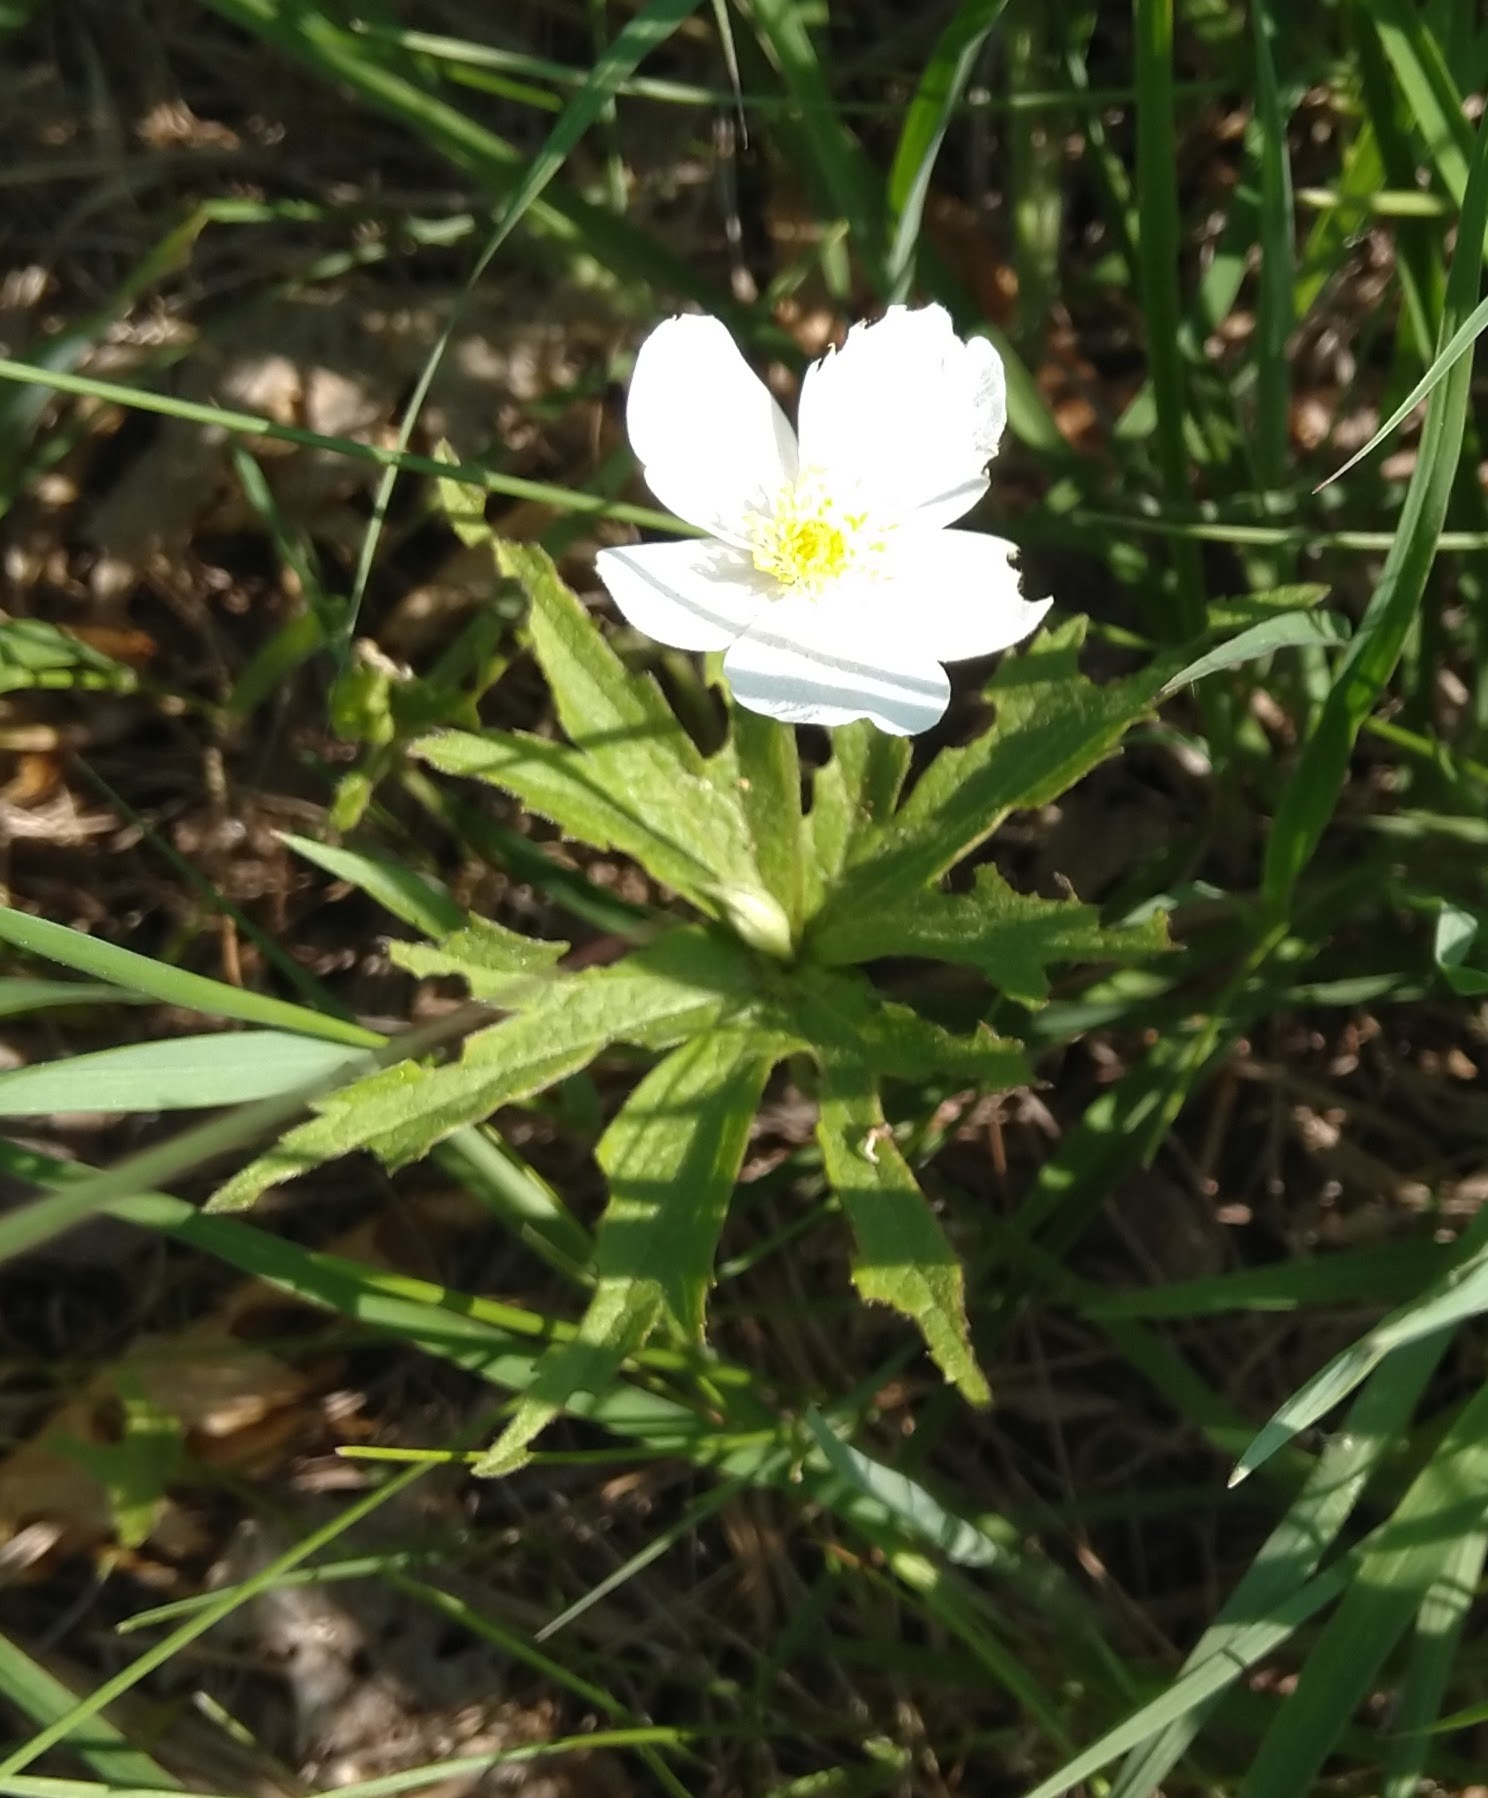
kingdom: Plantae
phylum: Tracheophyta
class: Magnoliopsida
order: Ranunculales
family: Ranunculaceae
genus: Anemonastrum
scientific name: Anemonastrum canadense
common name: Canada anemone
